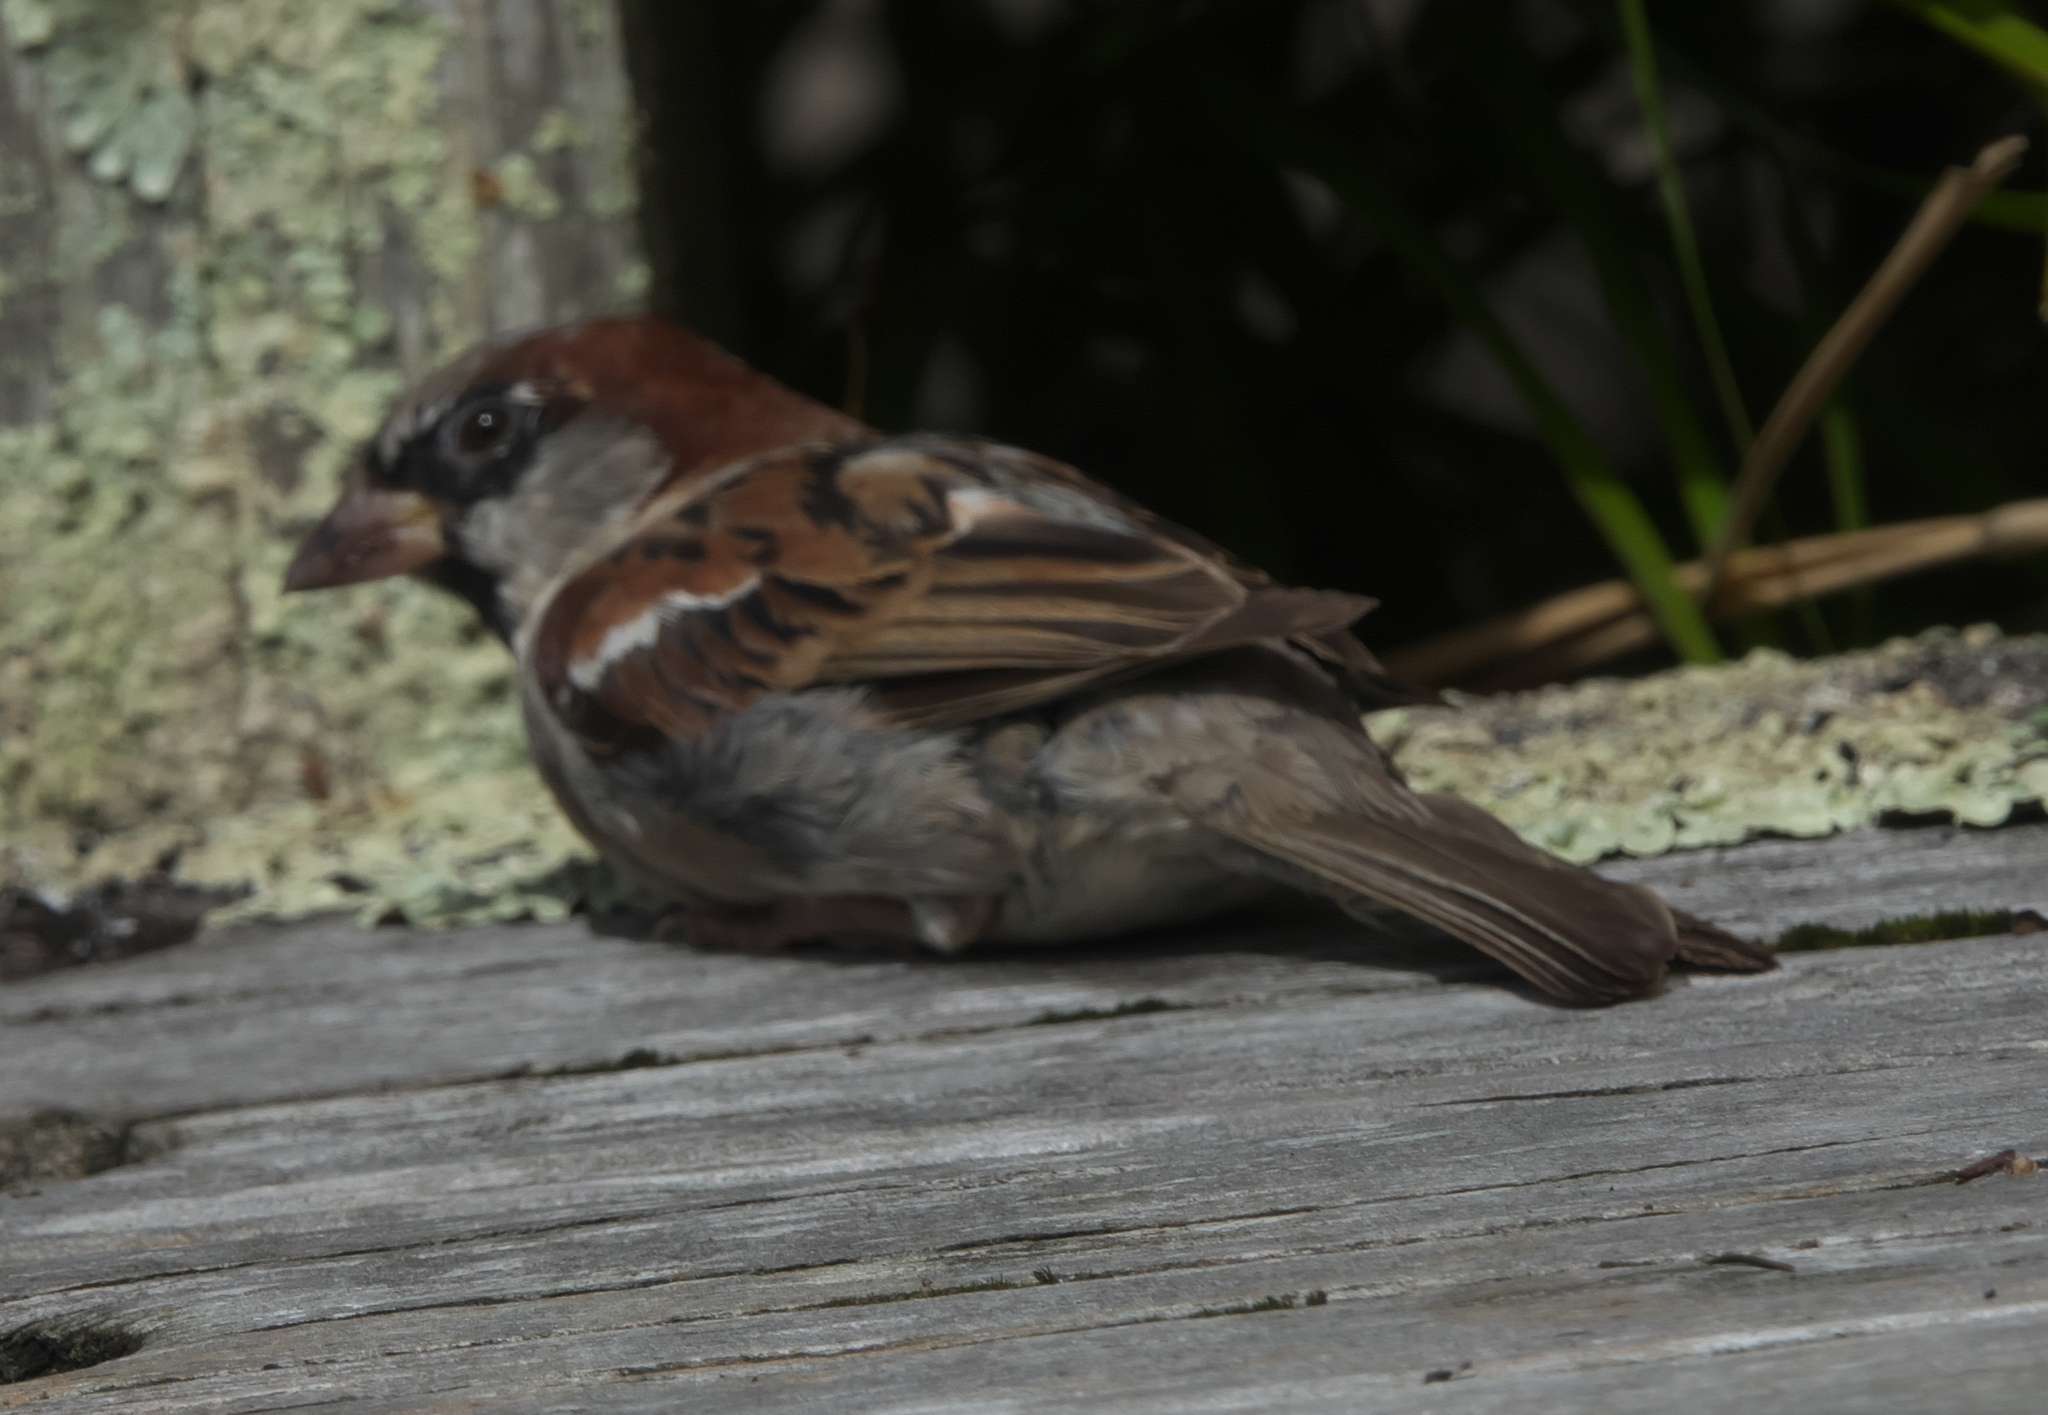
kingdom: Animalia
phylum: Chordata
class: Aves
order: Passeriformes
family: Passeridae
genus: Passer
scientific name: Passer domesticus
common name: House sparrow
